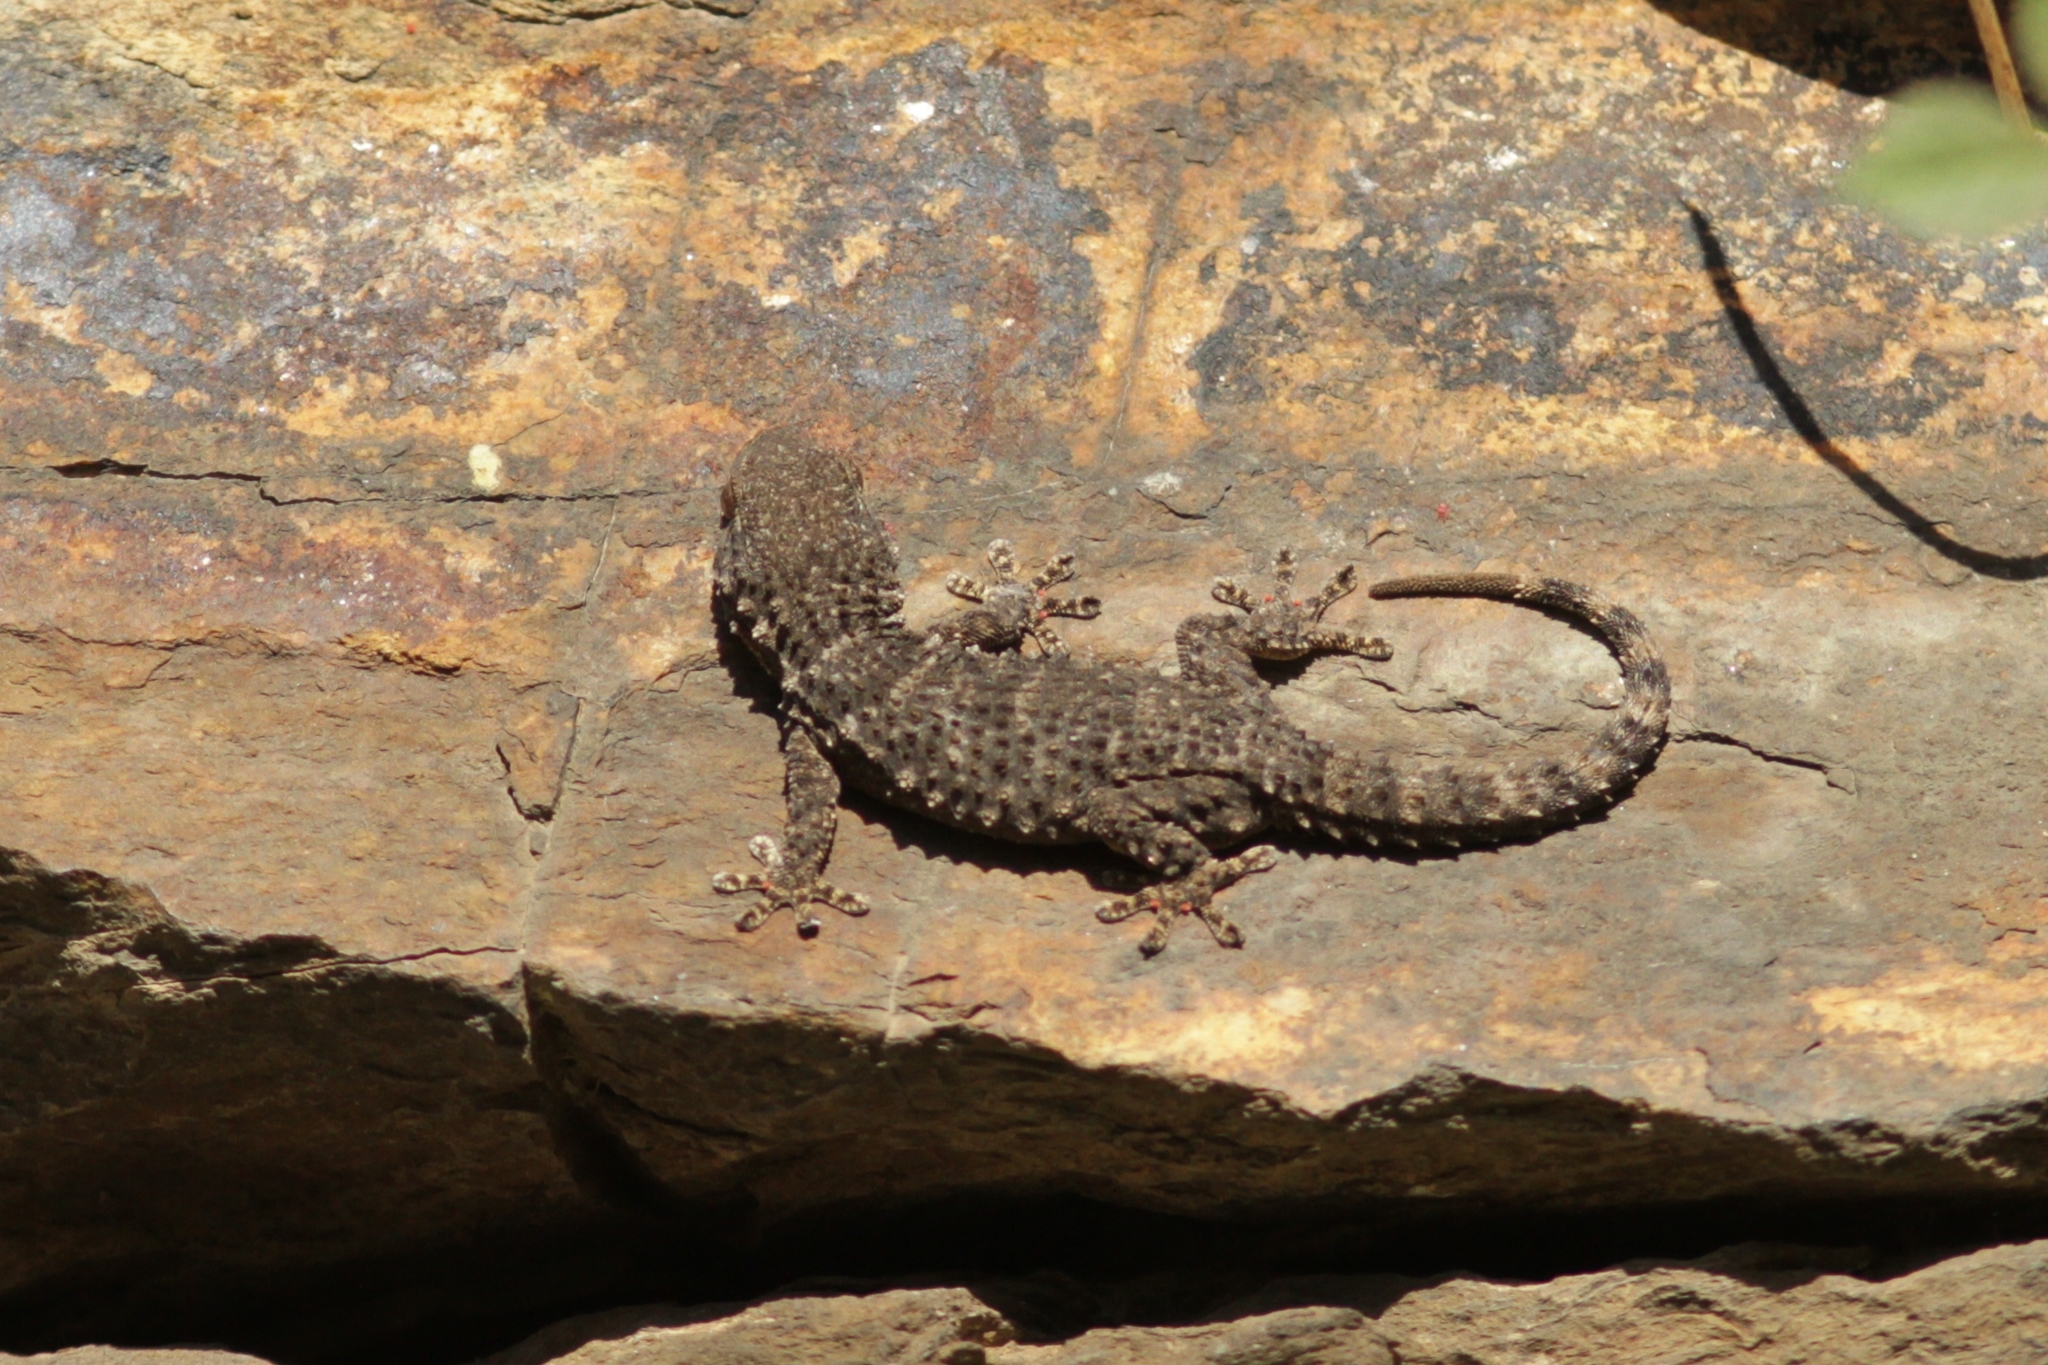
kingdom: Animalia
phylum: Chordata
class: Squamata
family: Phyllodactylidae
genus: Tarentola
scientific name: Tarentola mauritanica
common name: Moorish gecko
